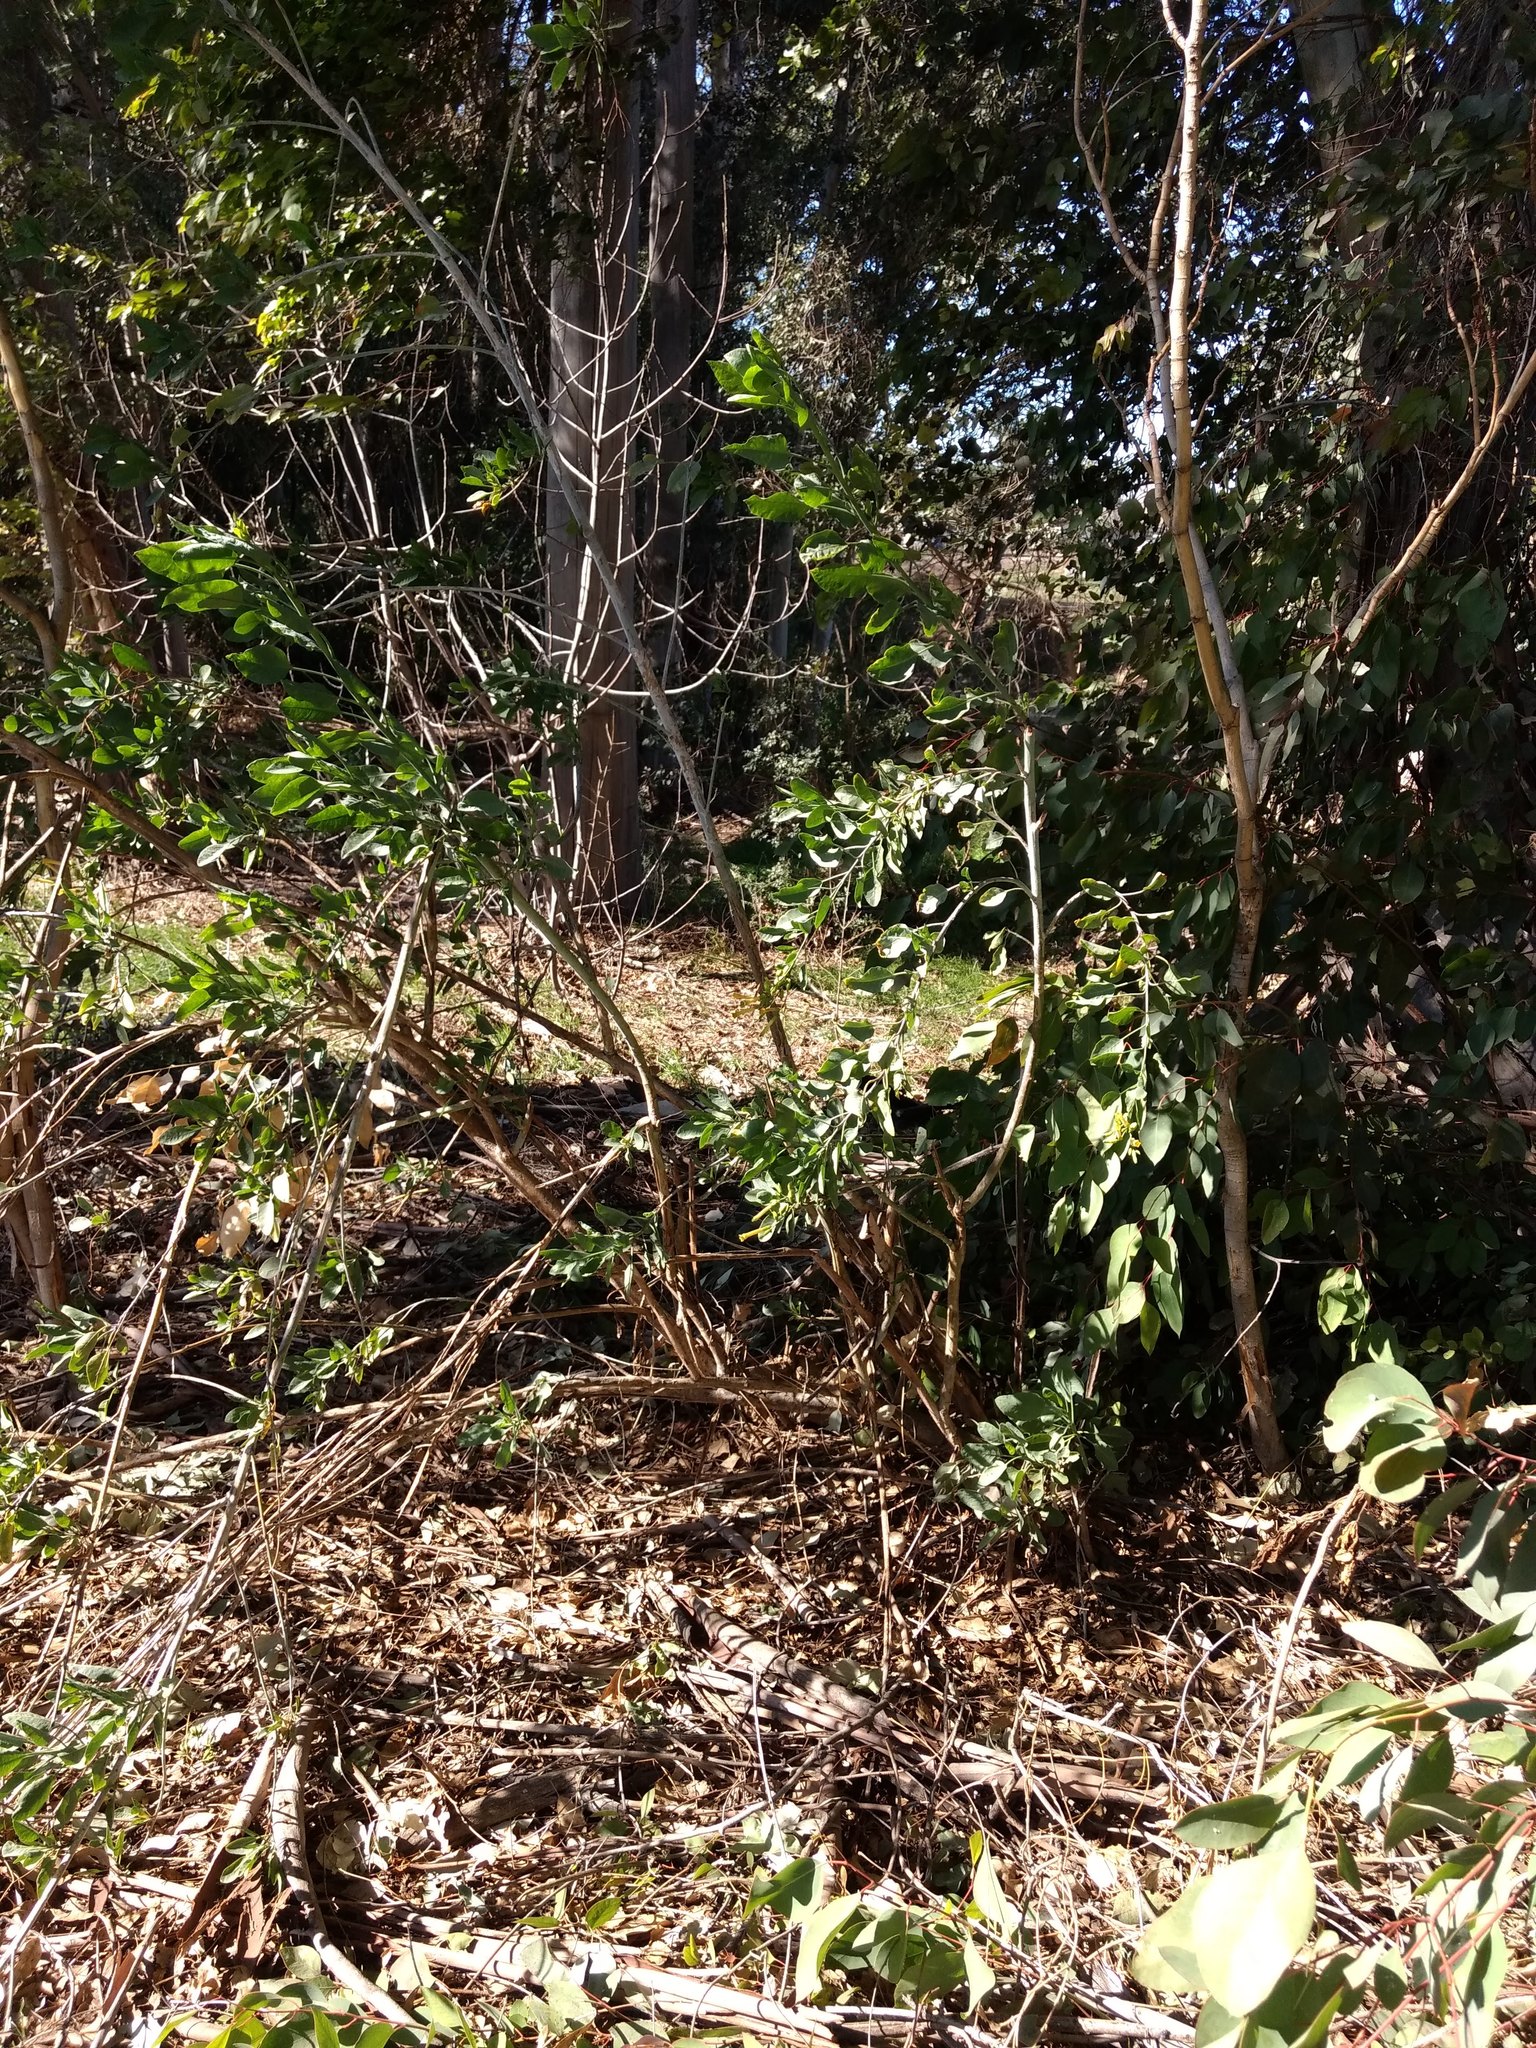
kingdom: Plantae
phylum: Tracheophyta
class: Magnoliopsida
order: Solanales
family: Solanaceae
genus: Nicotiana
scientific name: Nicotiana glauca
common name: Tree tobacco
